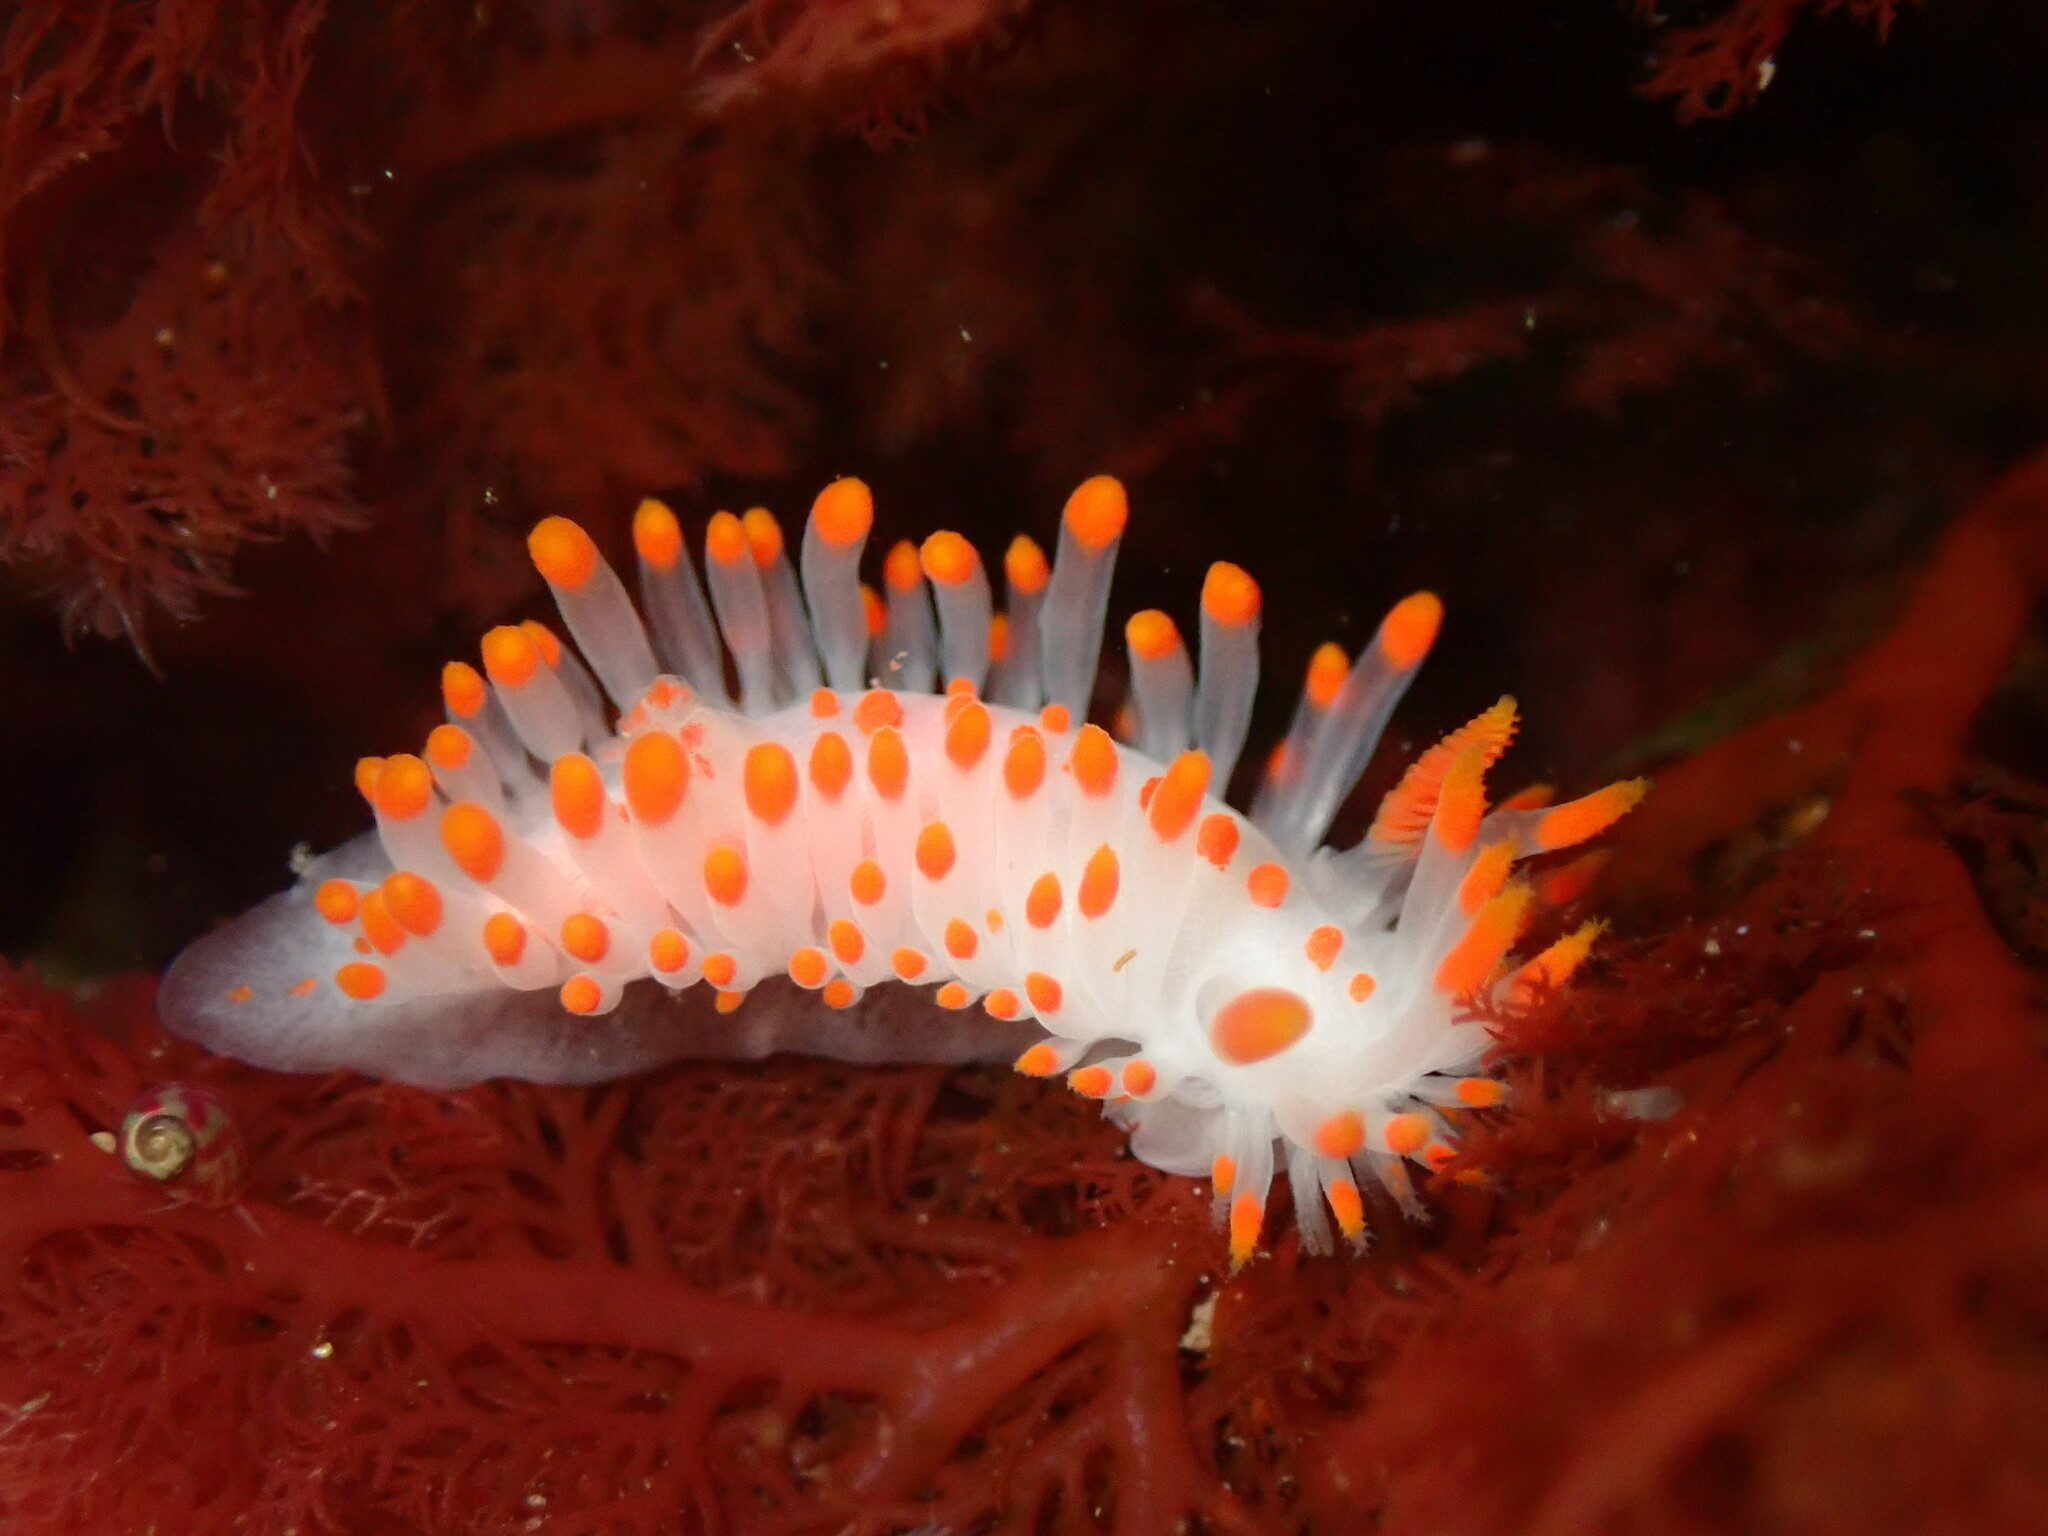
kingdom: Animalia
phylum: Mollusca
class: Gastropoda
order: Nudibranchia
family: Polyceridae
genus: Limacia
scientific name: Limacia mcdonaldi
